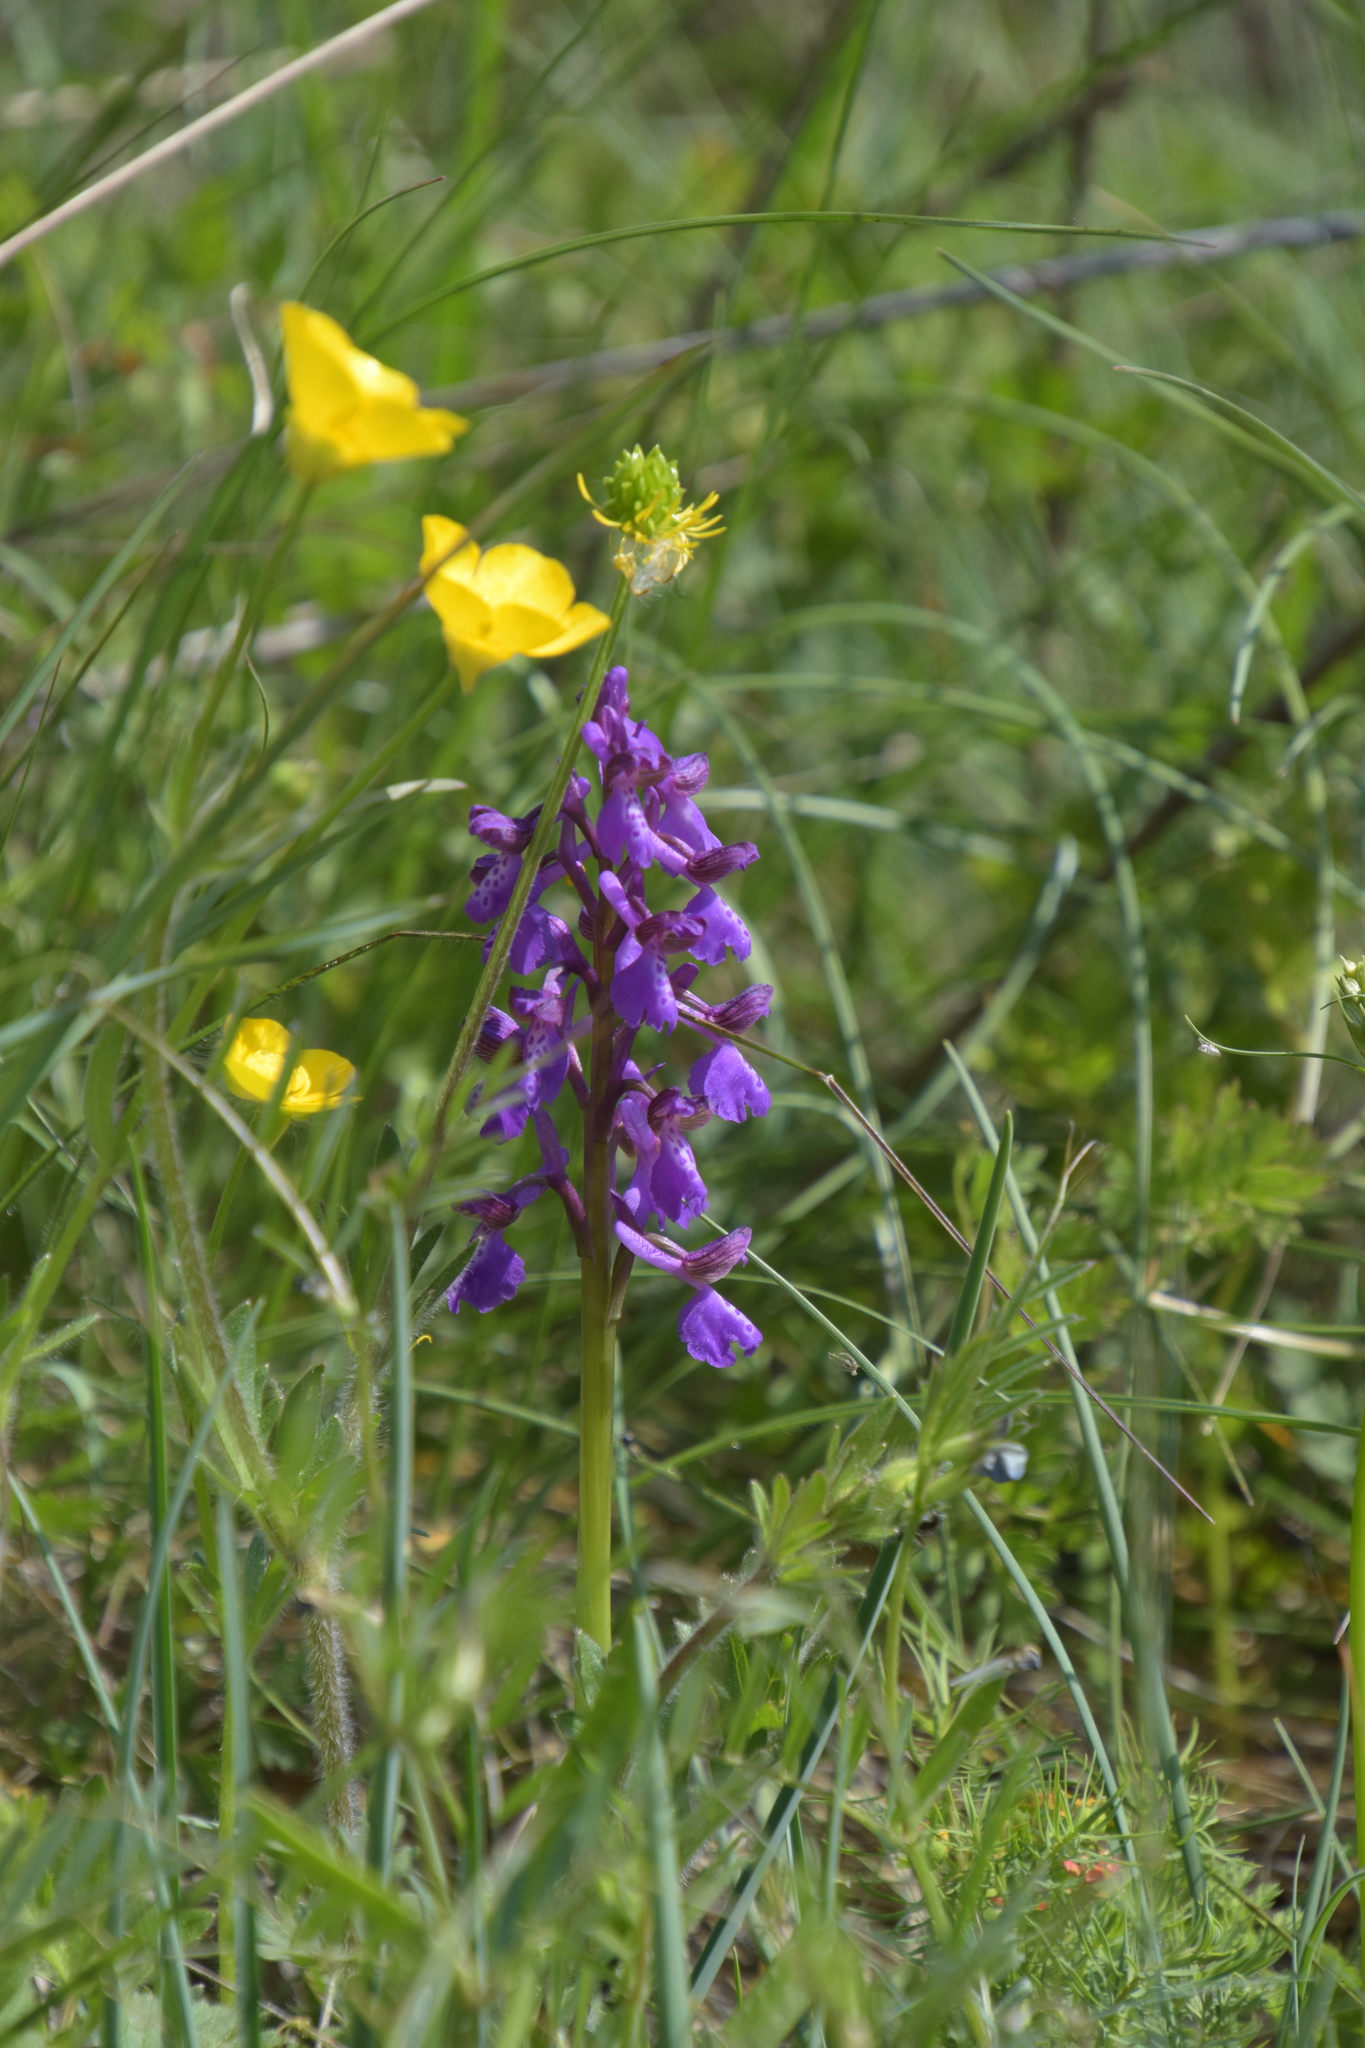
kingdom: Plantae
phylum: Tracheophyta
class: Liliopsida
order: Asparagales
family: Orchidaceae
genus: Anacamptis
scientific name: Anacamptis morio
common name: Green-winged orchid
